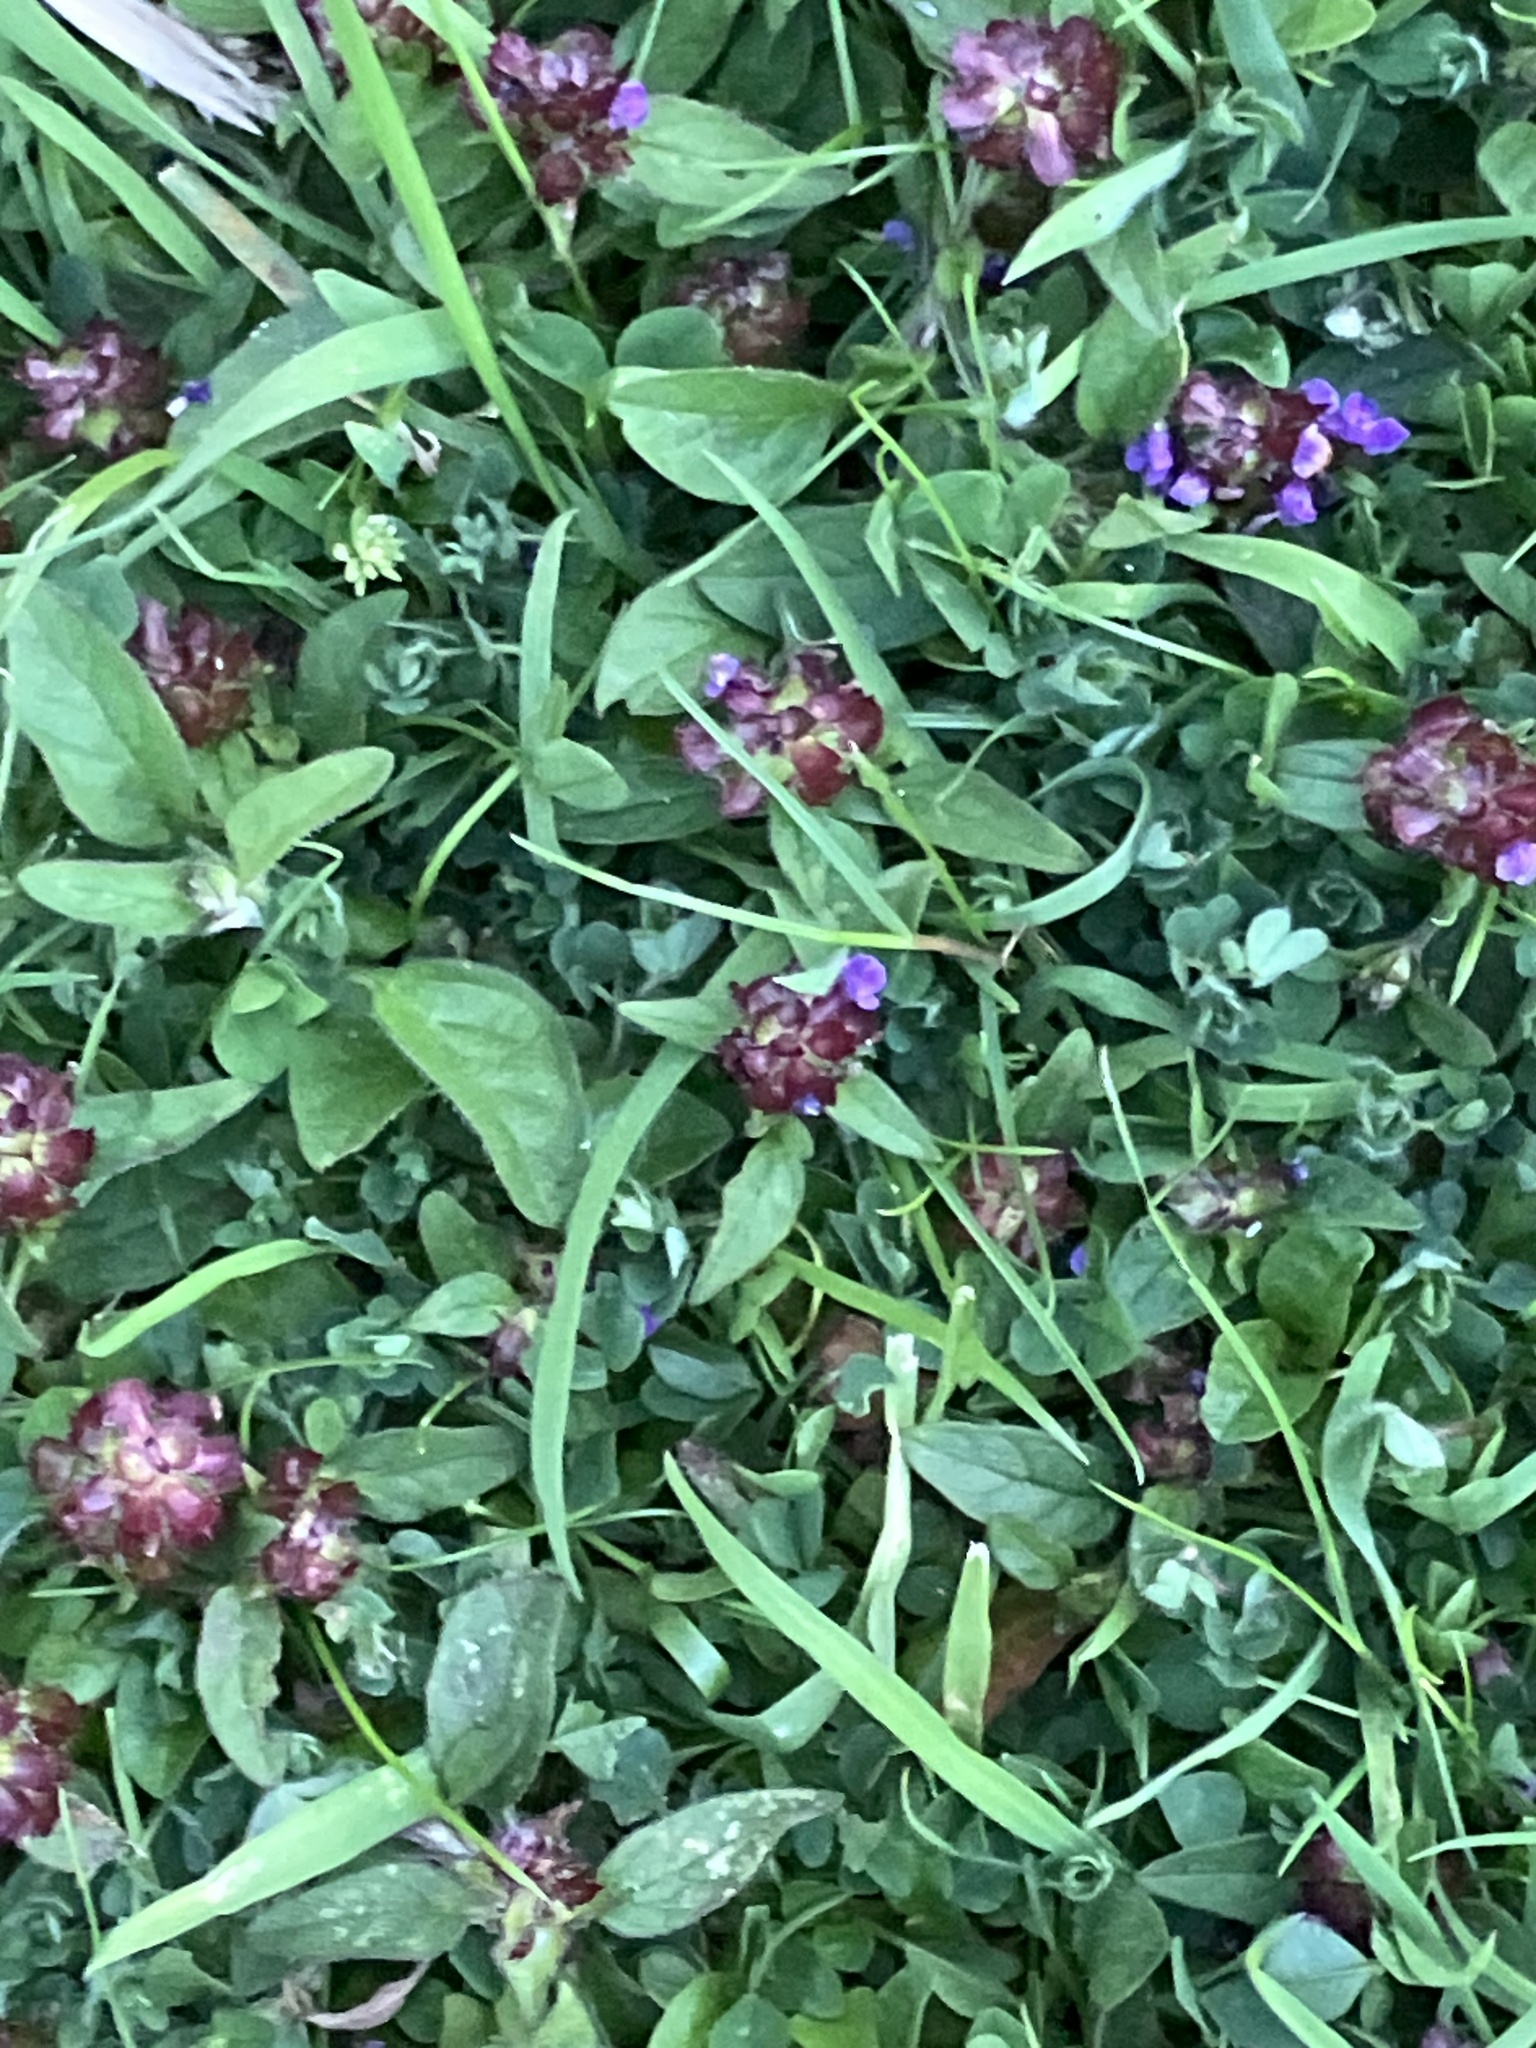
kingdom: Plantae
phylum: Tracheophyta
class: Magnoliopsida
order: Lamiales
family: Lamiaceae
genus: Prunella
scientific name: Prunella vulgaris
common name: Heal-all
